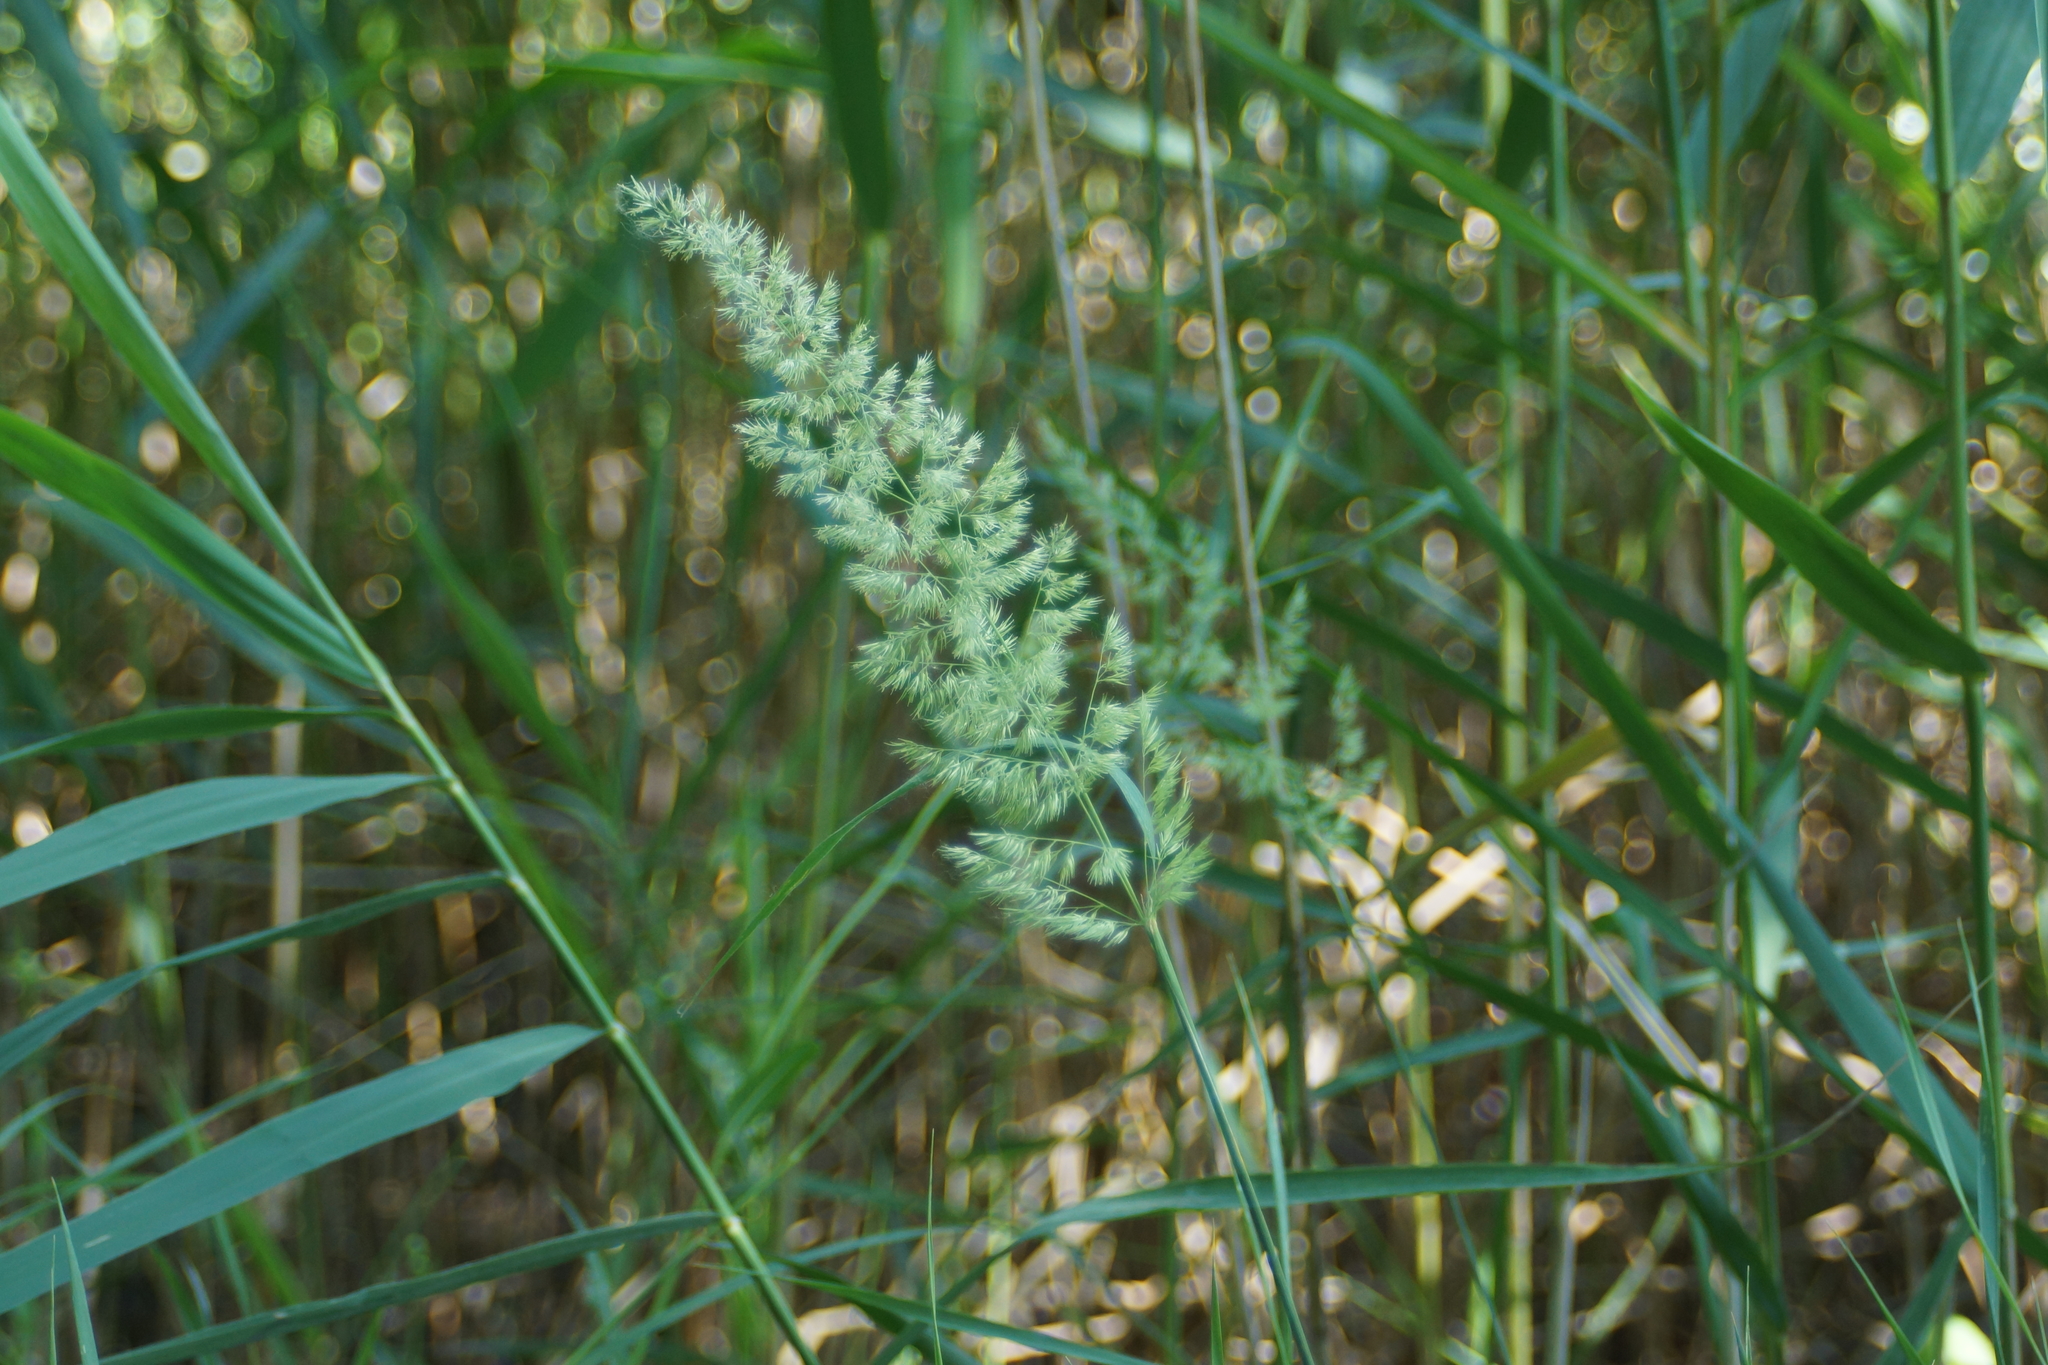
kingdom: Plantae
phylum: Tracheophyta
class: Liliopsida
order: Poales
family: Poaceae
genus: Calamagrostis
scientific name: Calamagrostis epigejos
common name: Wood small-reed
